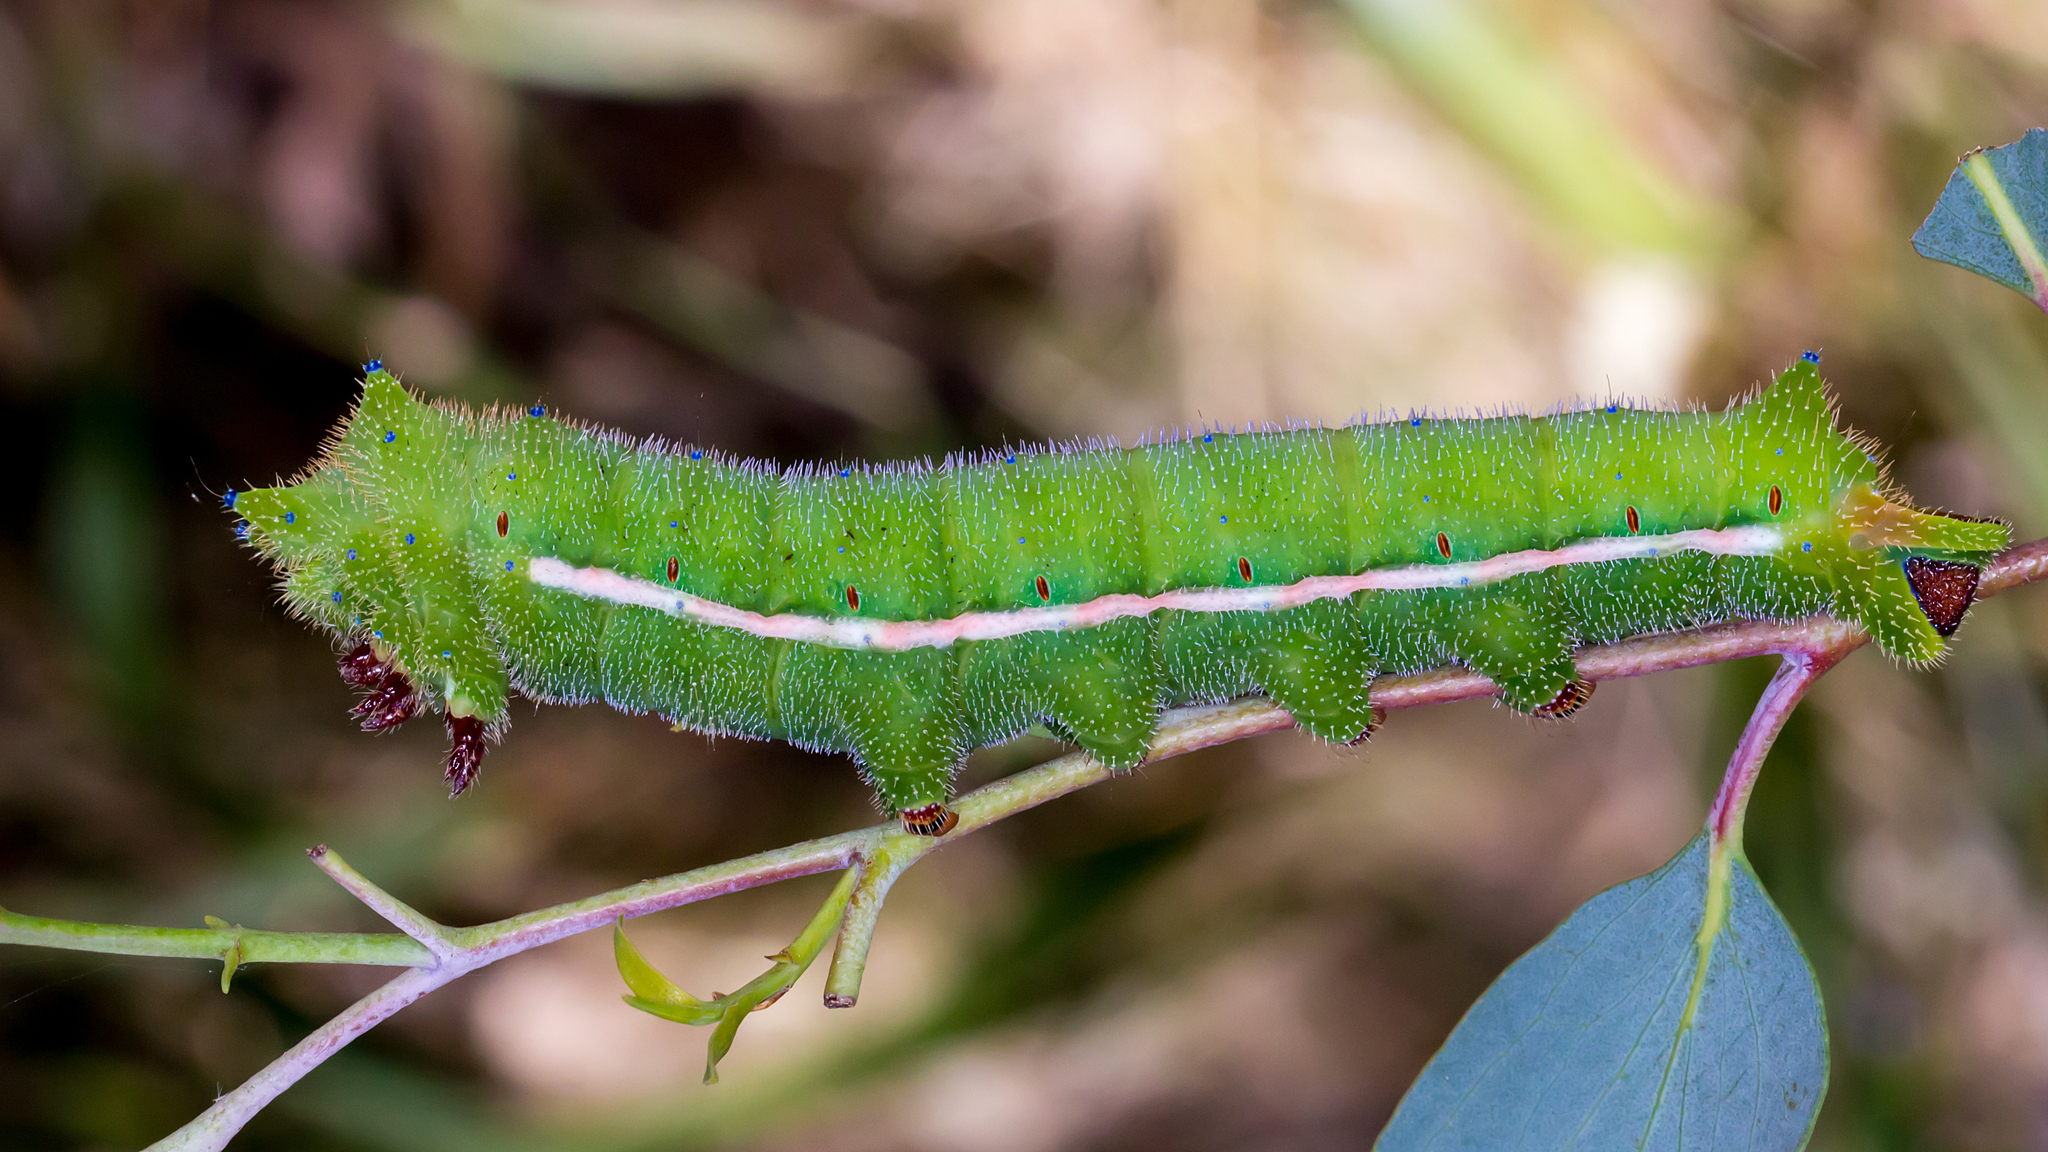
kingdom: Animalia
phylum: Arthropoda
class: Insecta
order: Lepidoptera
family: Saturniidae
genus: Opodiphthera
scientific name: Opodiphthera
